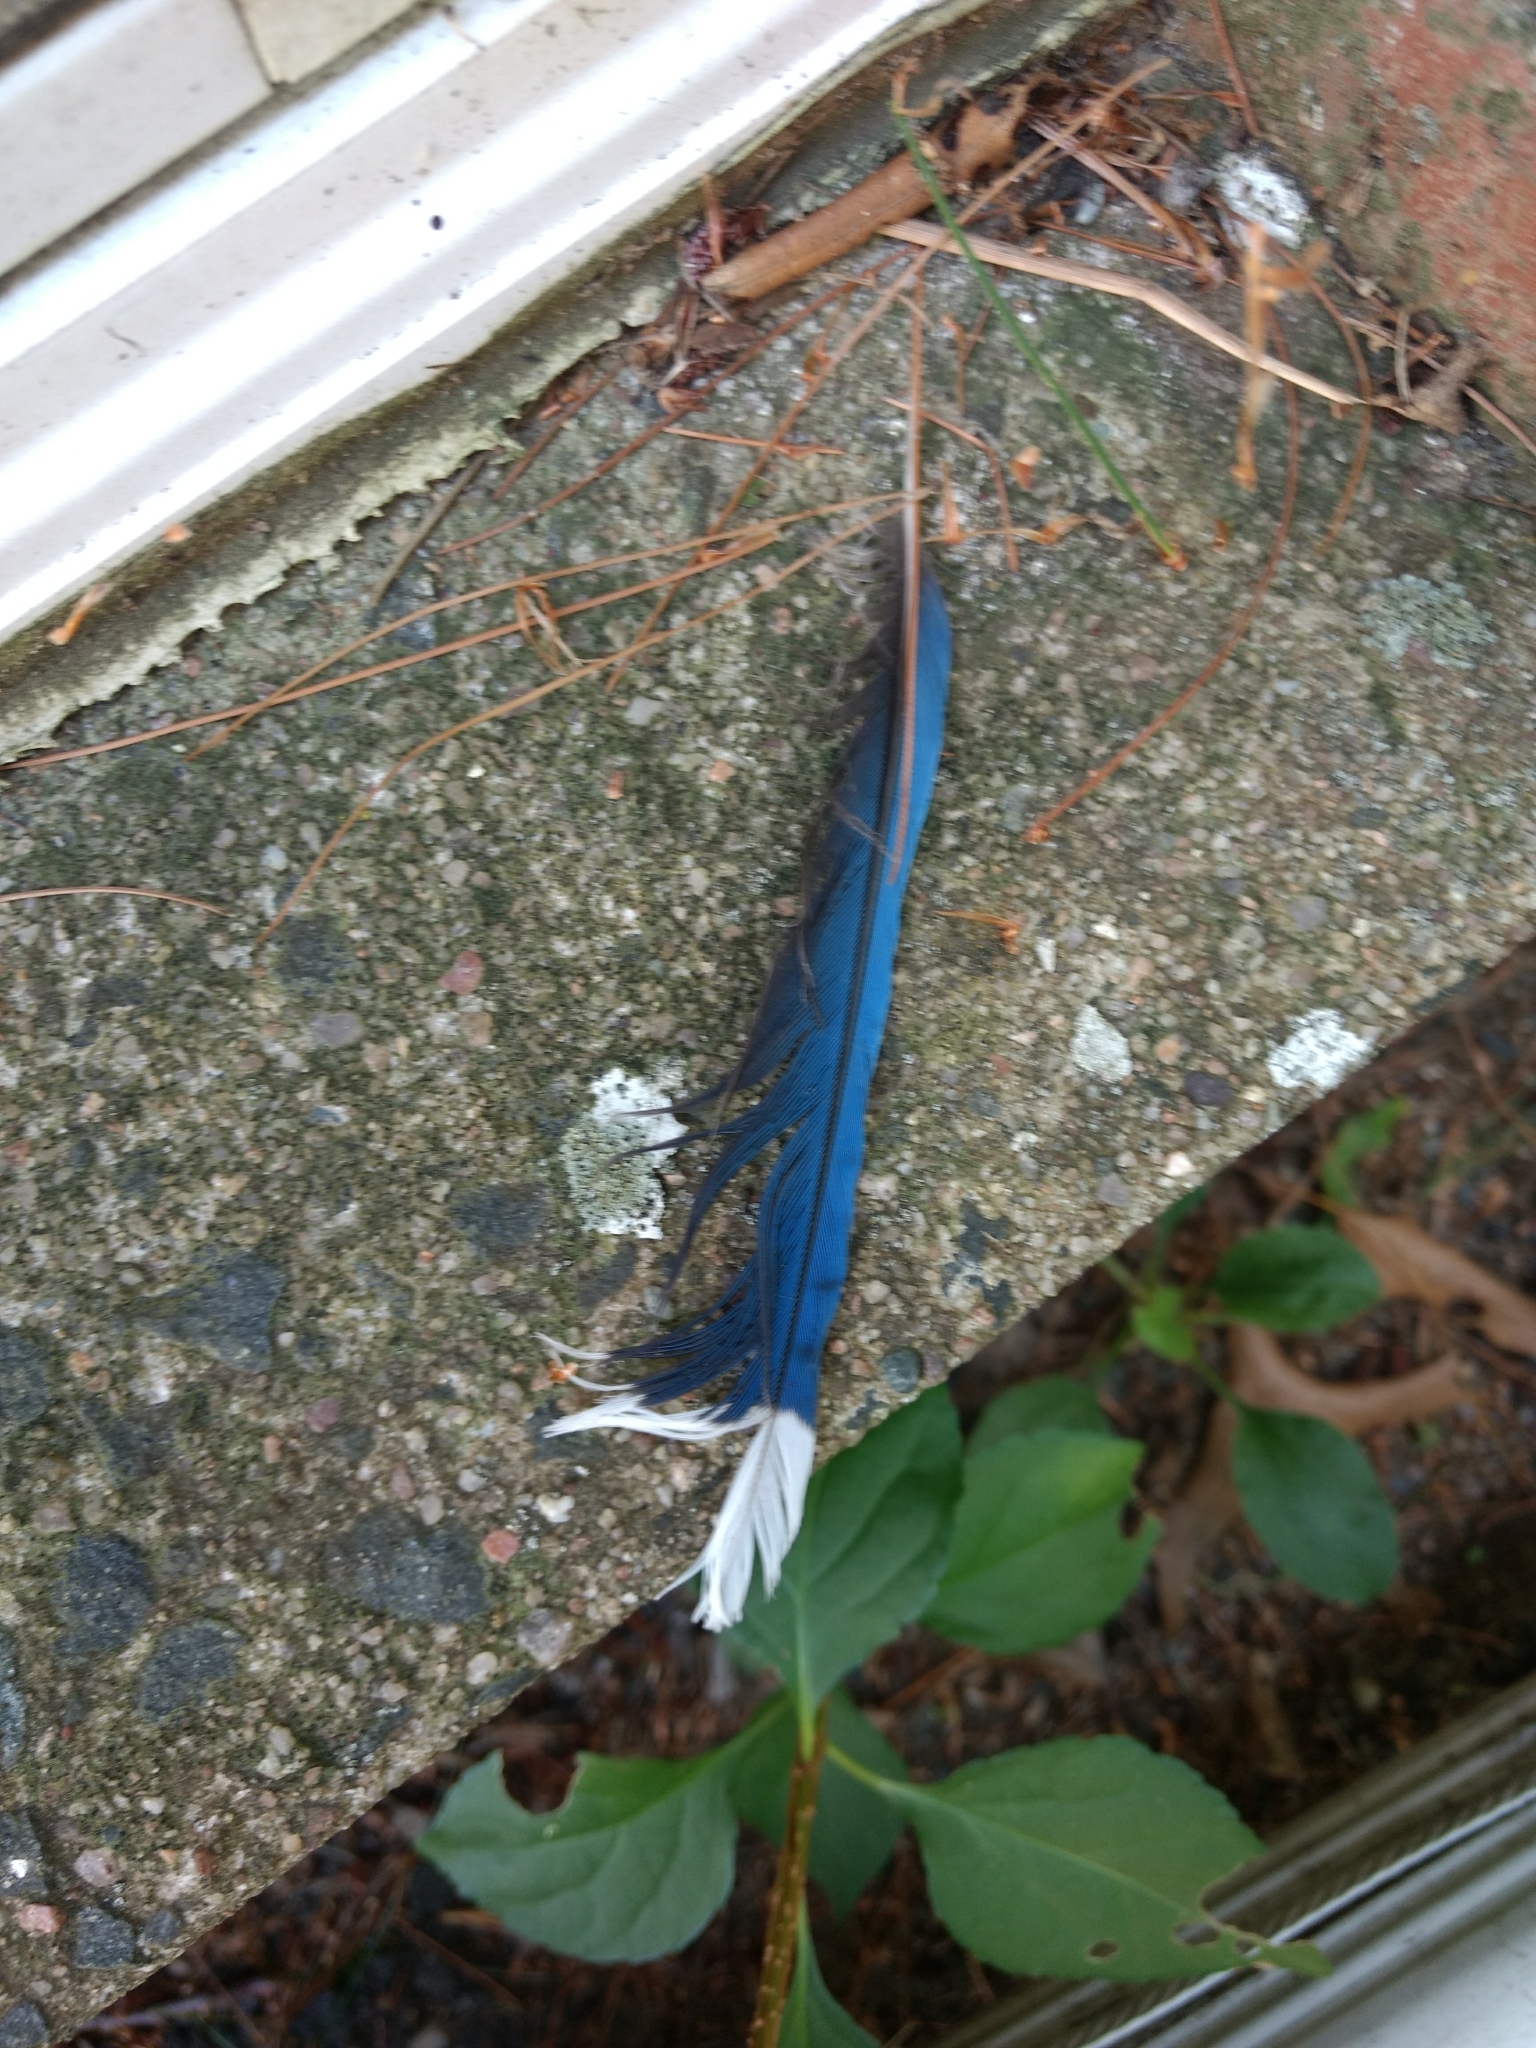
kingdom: Animalia
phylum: Chordata
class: Aves
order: Passeriformes
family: Corvidae
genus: Cyanocitta
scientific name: Cyanocitta cristata
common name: Blue jay
